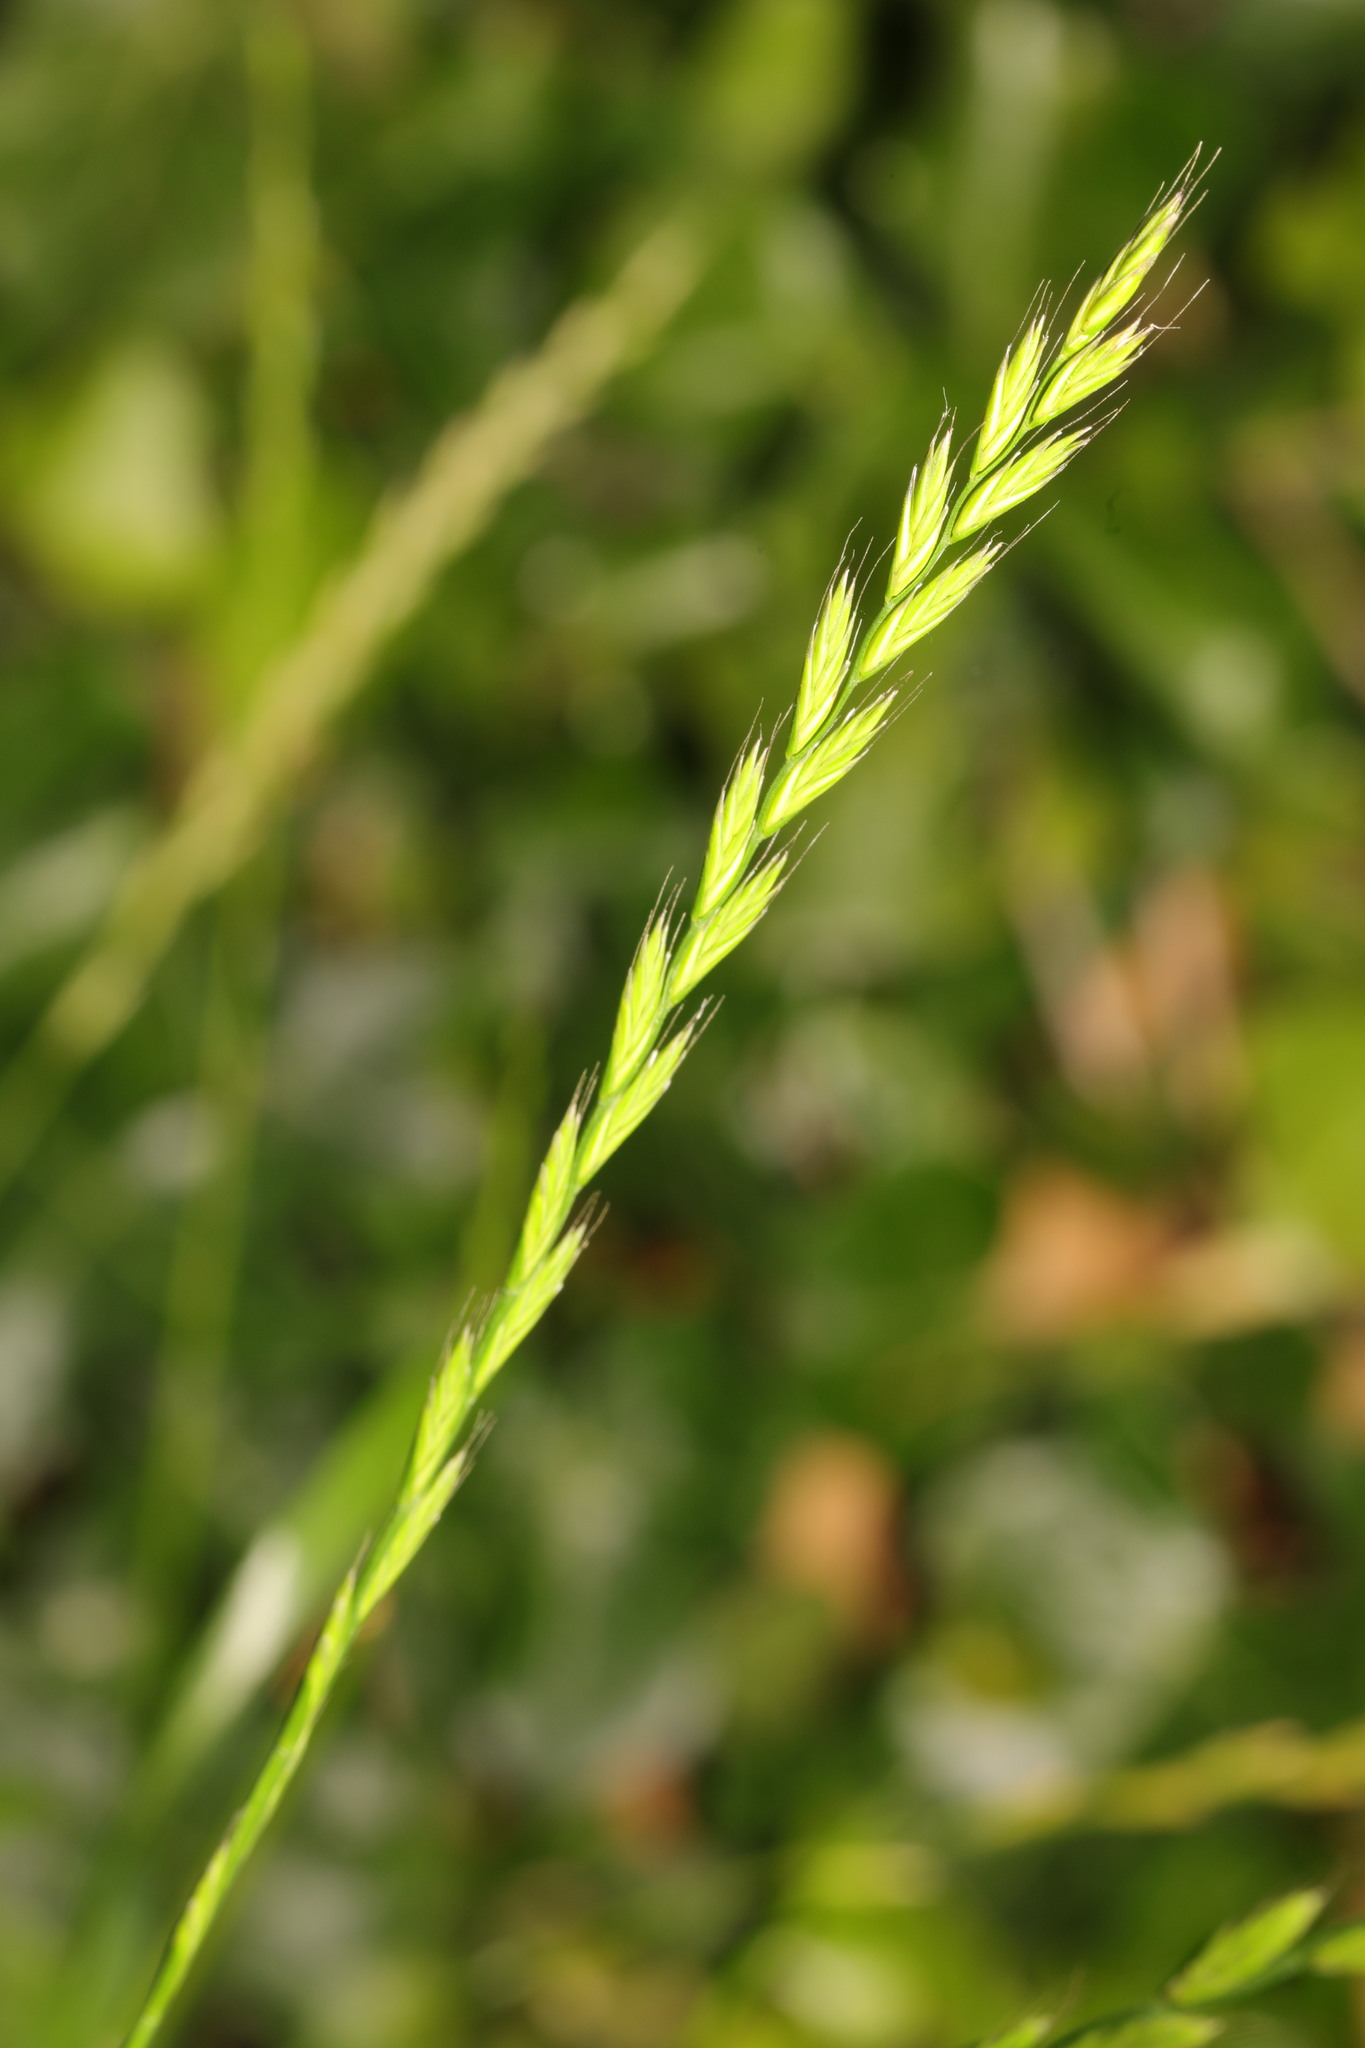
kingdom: Plantae
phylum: Tracheophyta
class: Liliopsida
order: Poales
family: Poaceae
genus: Lolium
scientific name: Lolium multiflorum
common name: Annual ryegrass
